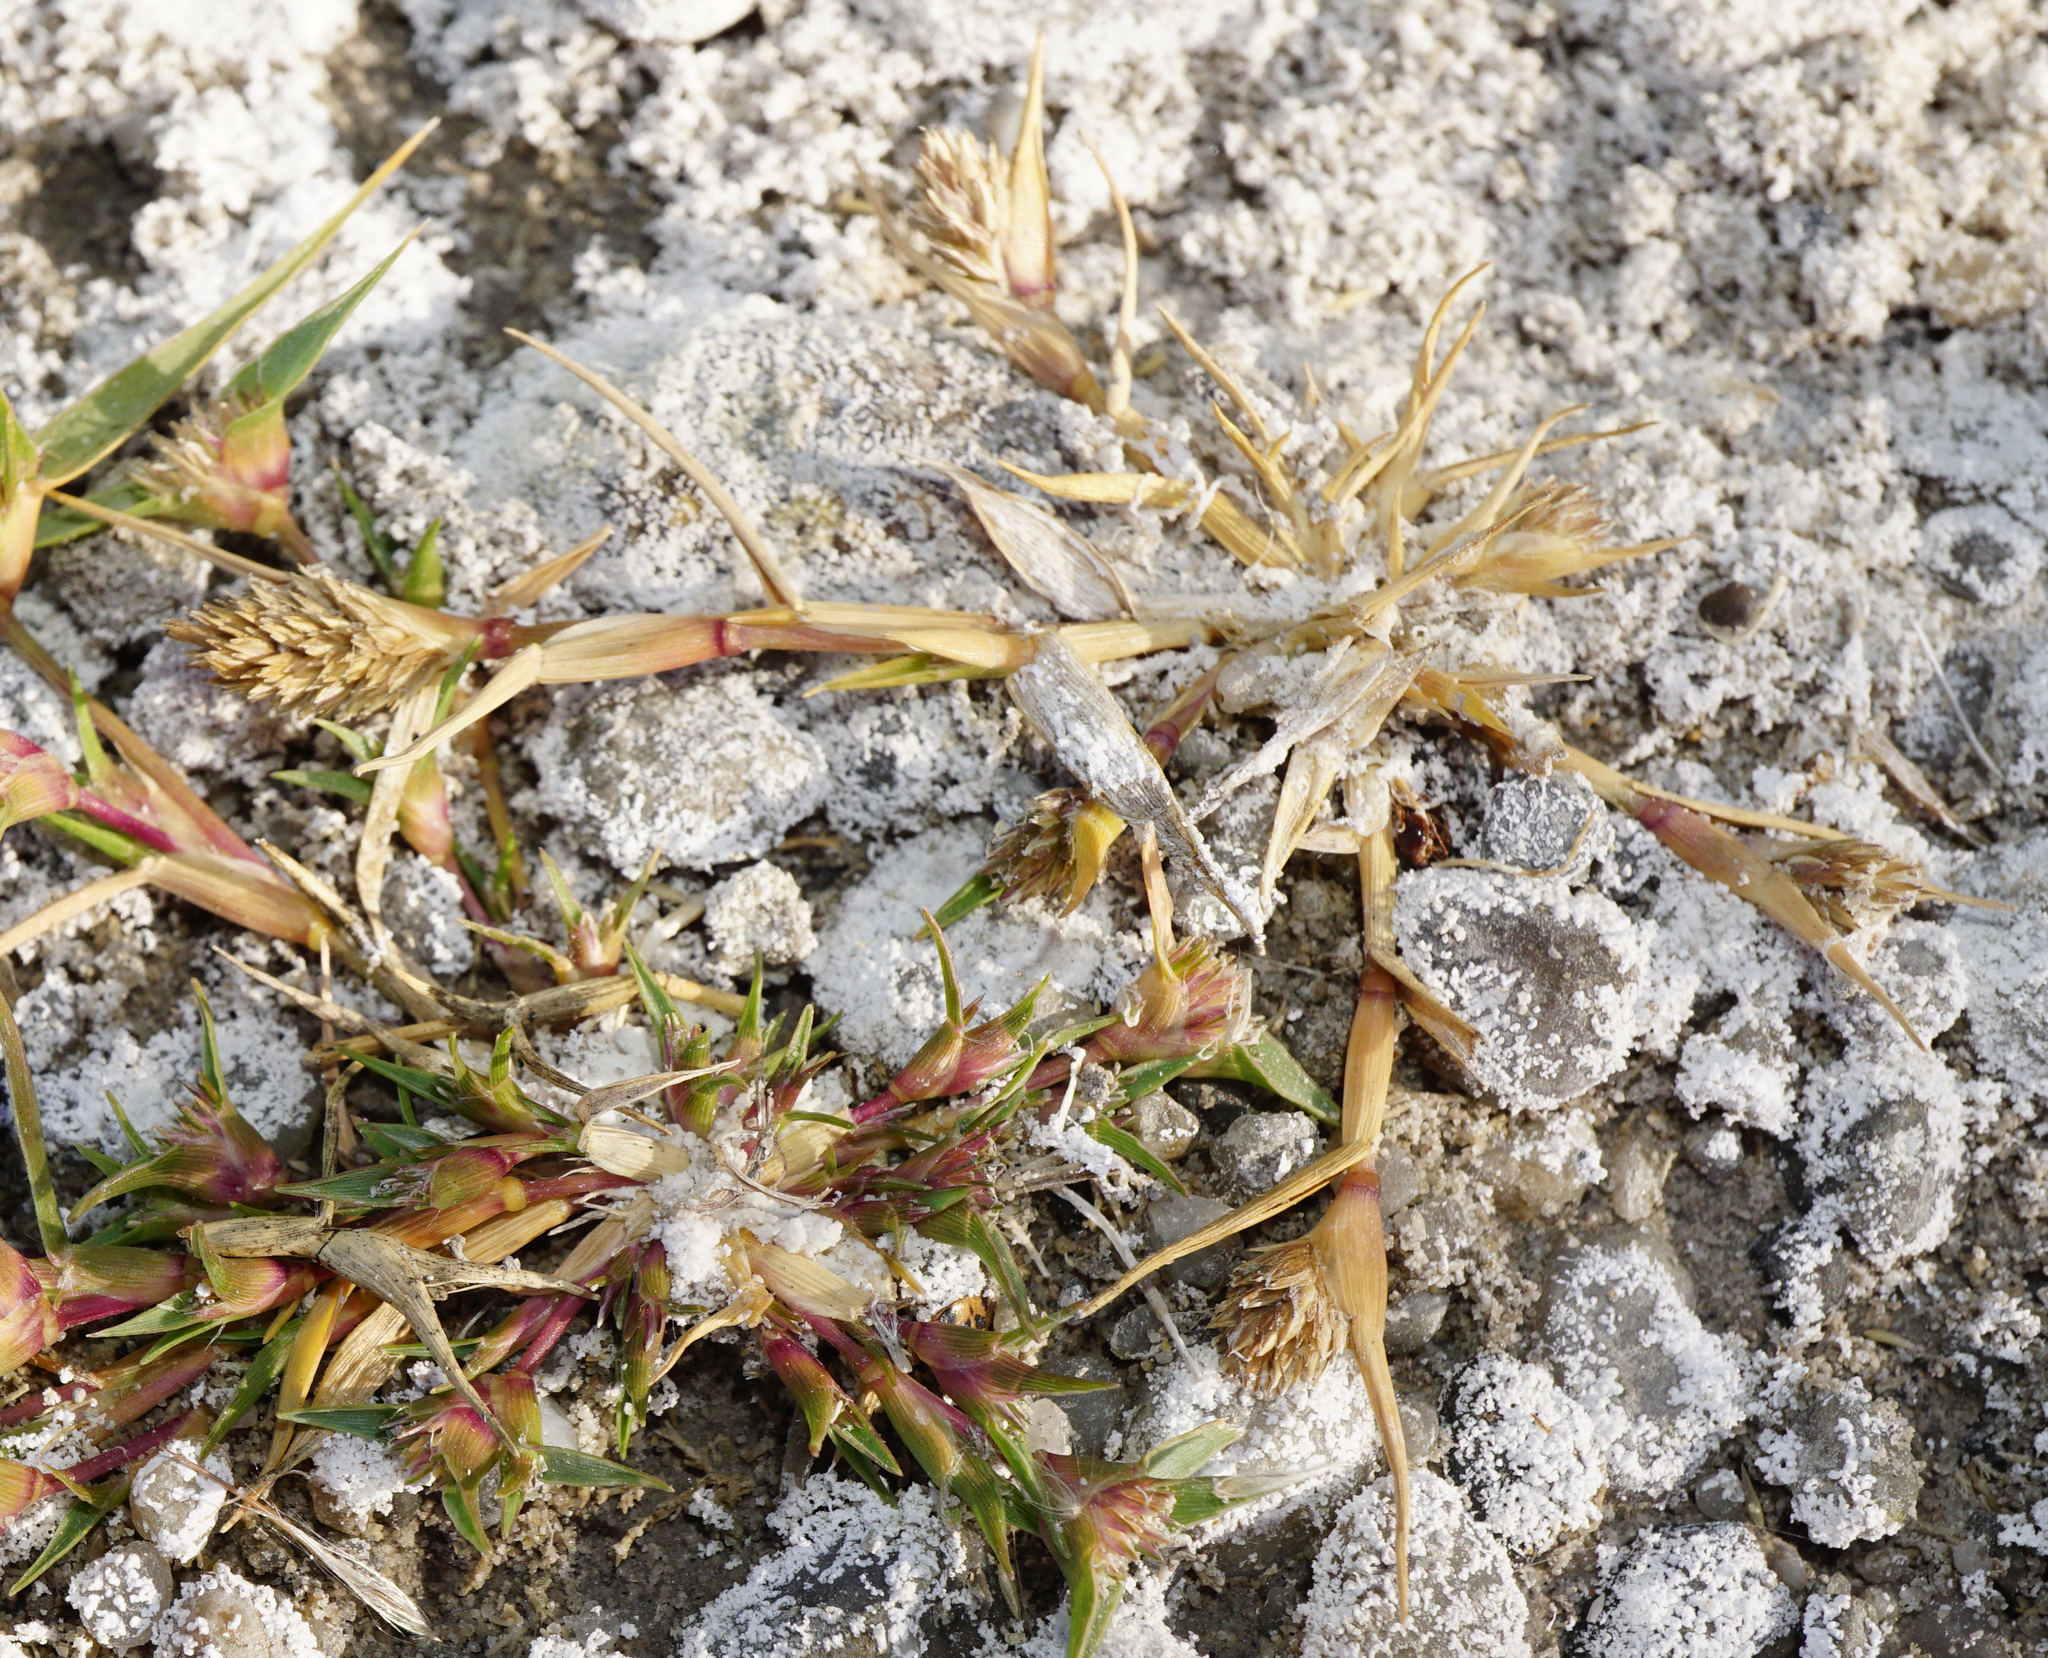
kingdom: Plantae
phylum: Tracheophyta
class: Liliopsida
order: Poales
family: Poaceae
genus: Sporobolus
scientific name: Sporobolus schoenoides
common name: Rush-like timothy
